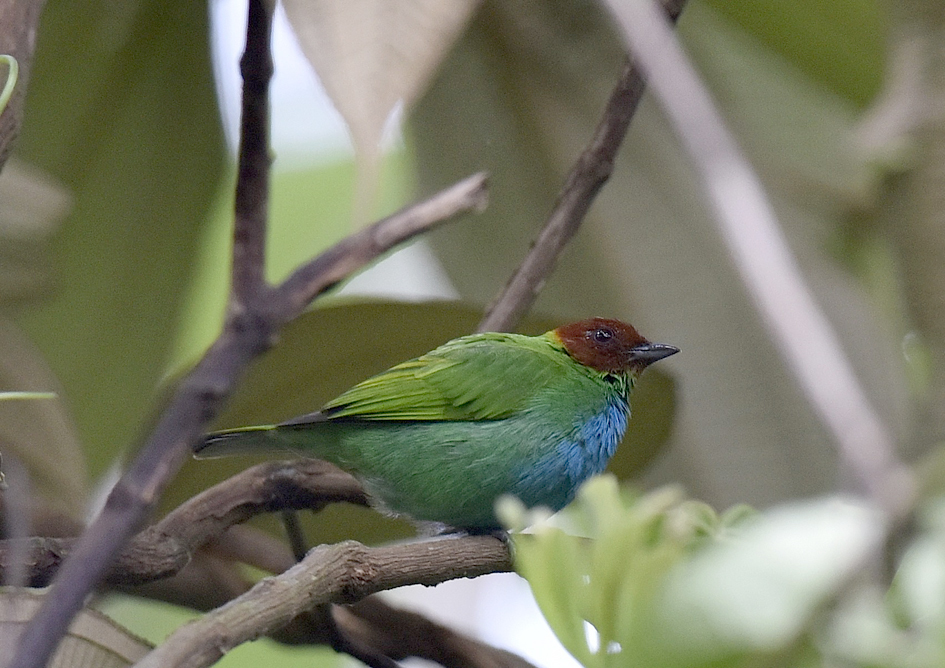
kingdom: Animalia
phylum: Chordata
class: Aves
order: Passeriformes
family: Thraupidae
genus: Tangara
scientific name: Tangara gyrola
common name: Bay-headed tanager
